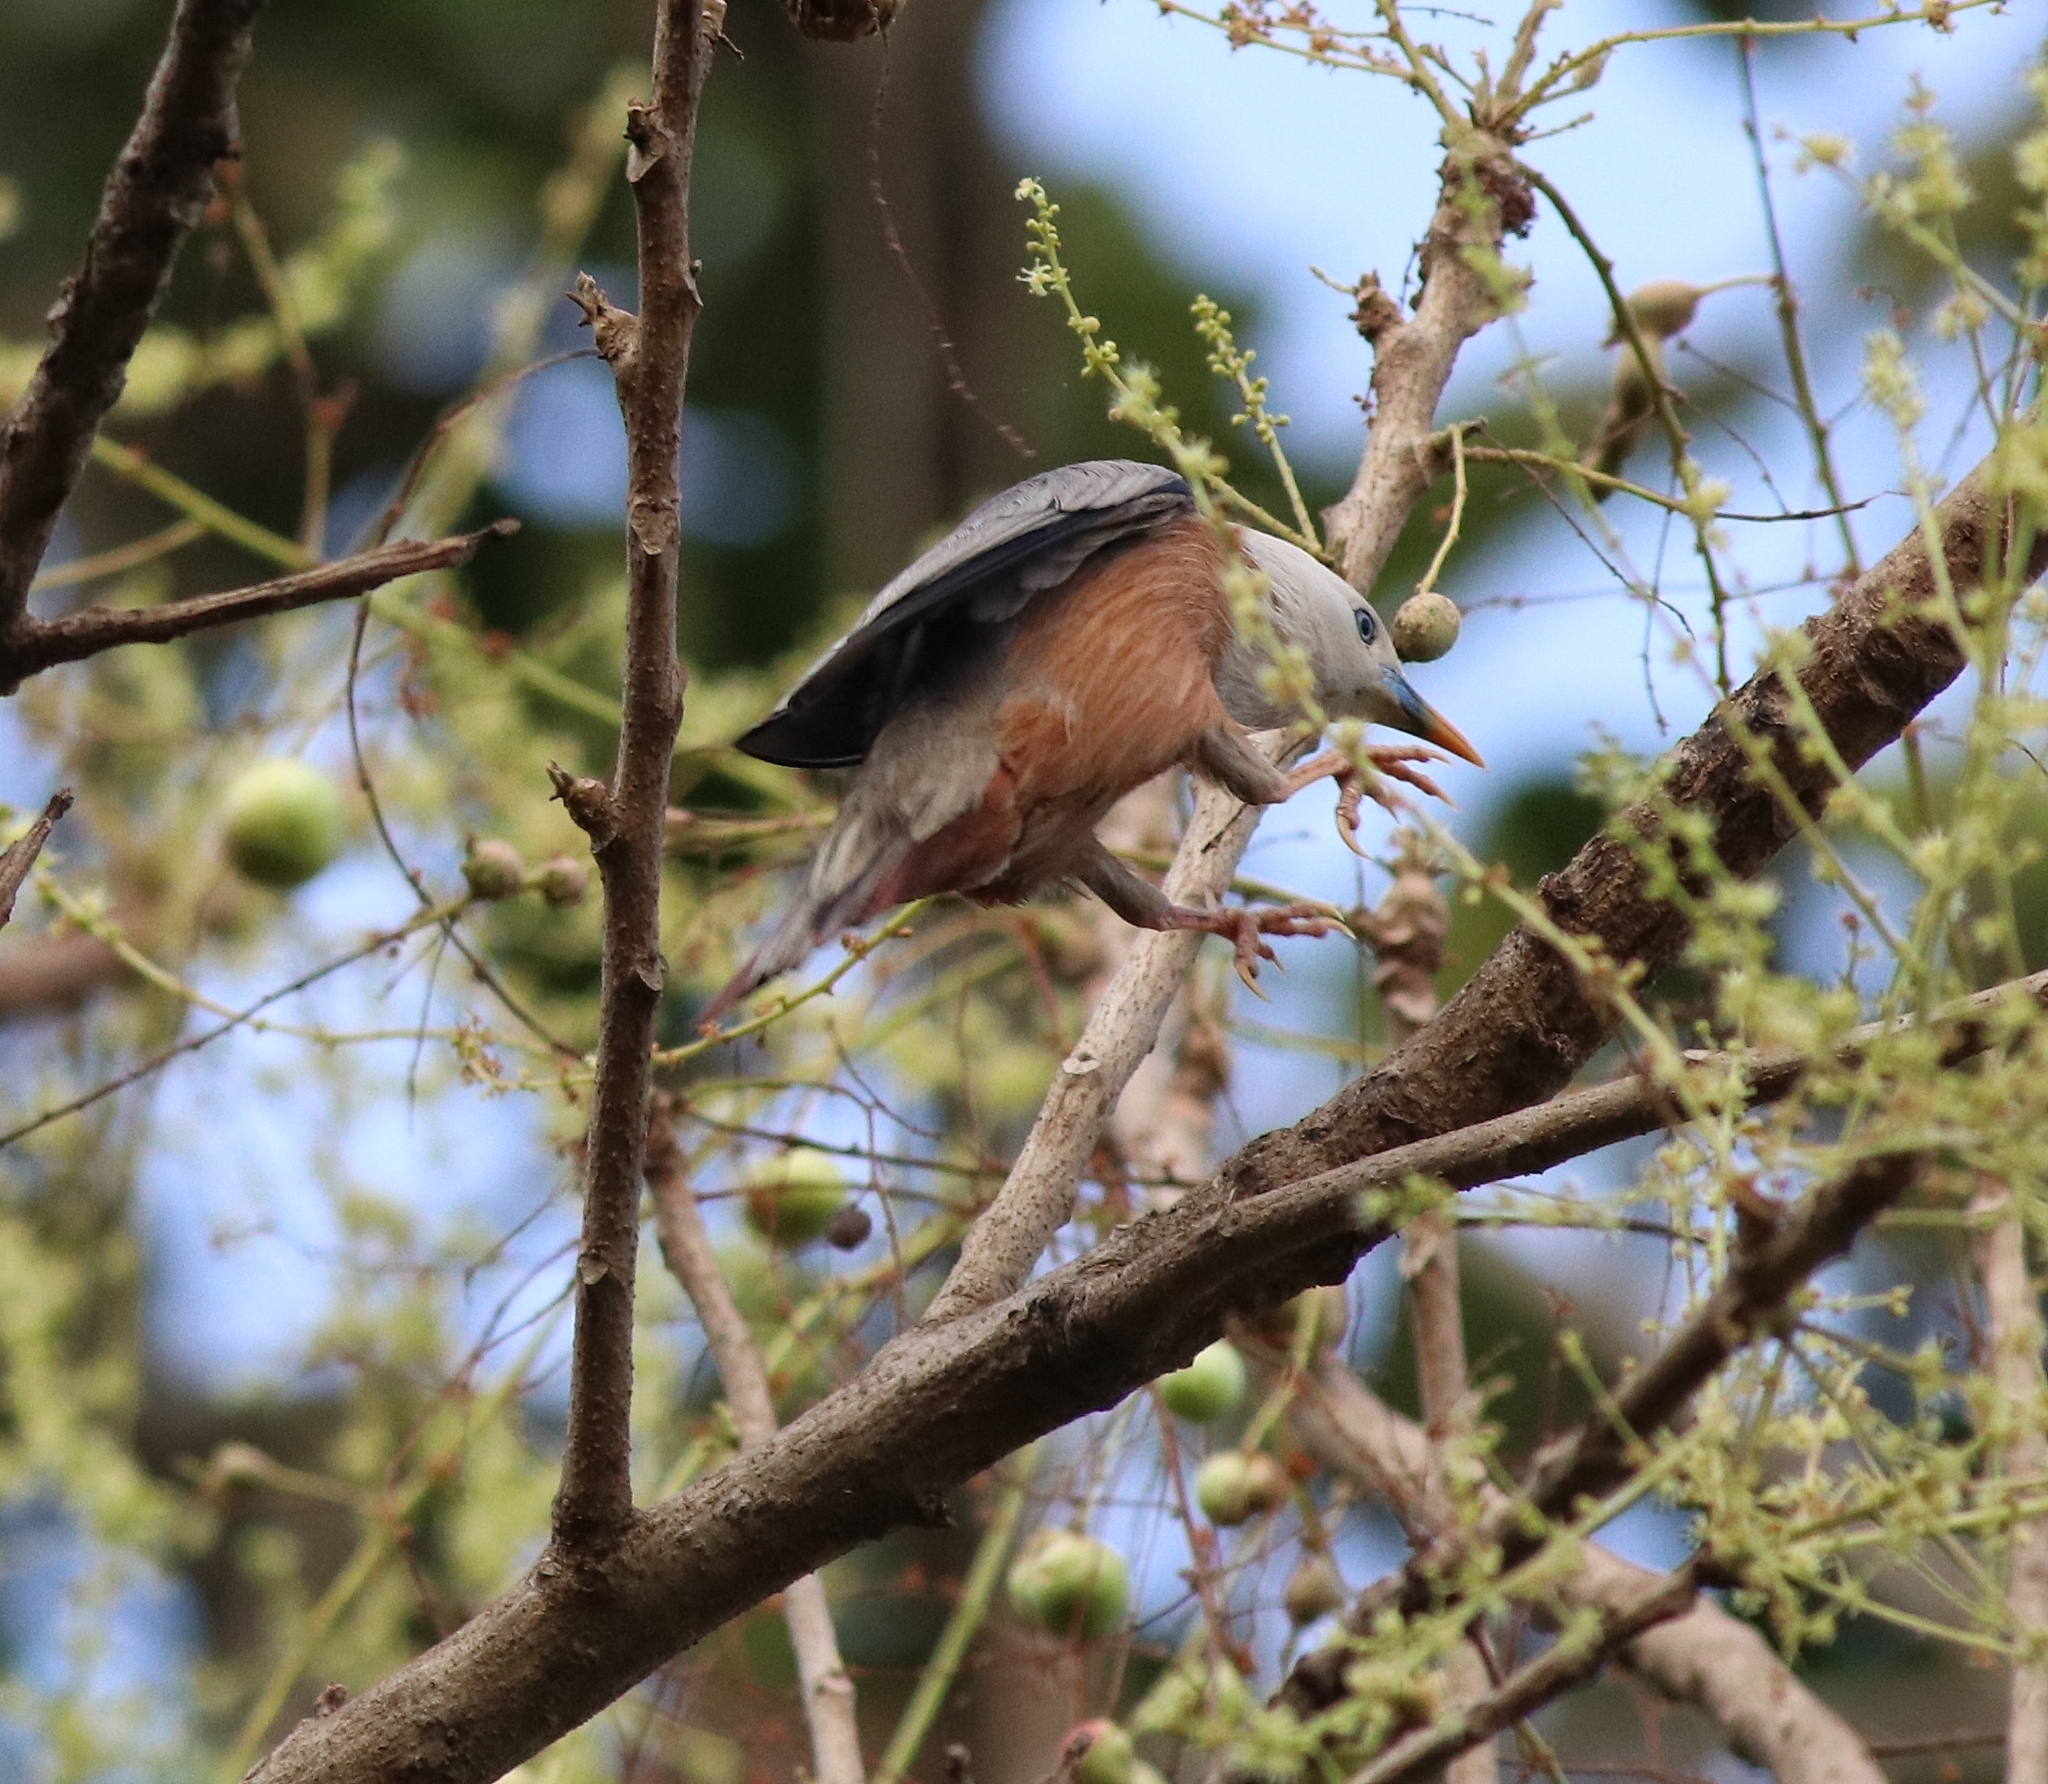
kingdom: Animalia
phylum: Chordata
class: Aves
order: Passeriformes
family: Sturnidae
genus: Sturnia
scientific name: Sturnia blythii
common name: Malabar starling
